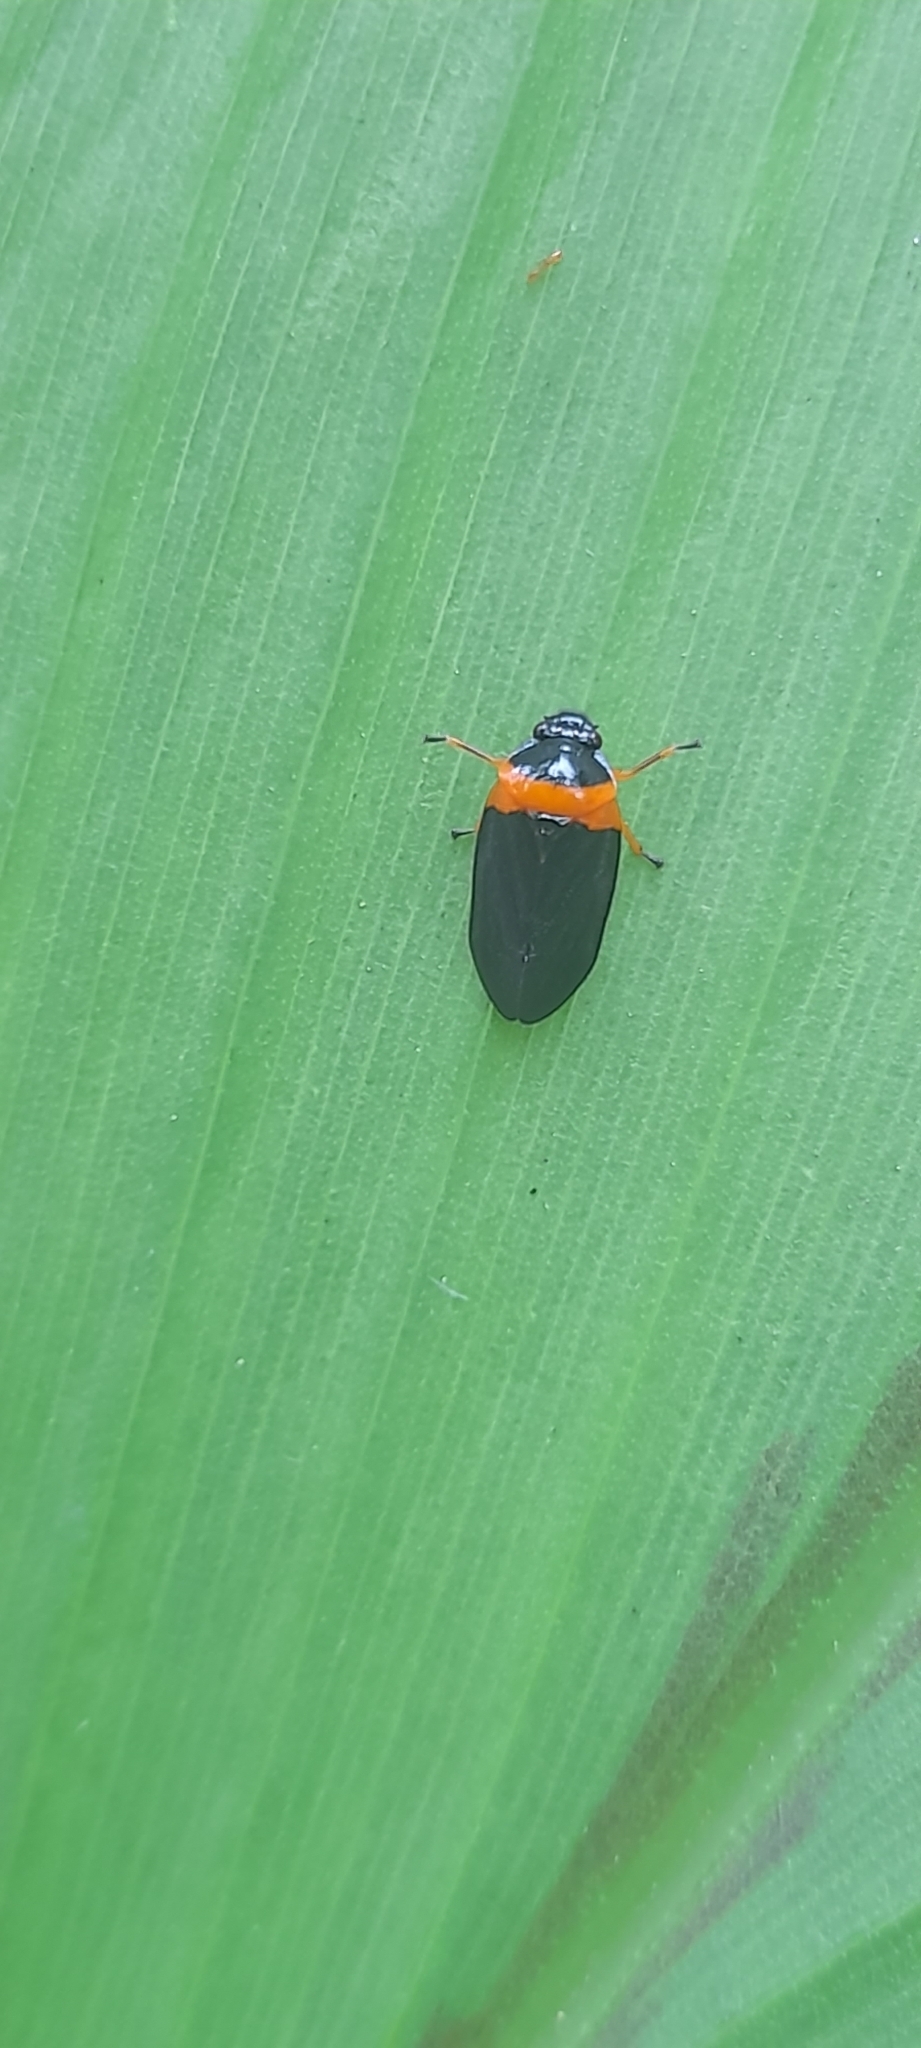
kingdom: Animalia
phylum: Arthropoda
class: Insecta
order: Hemiptera
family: Cercopidae
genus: Phymatostetha
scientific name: Phymatostetha deschampsi
